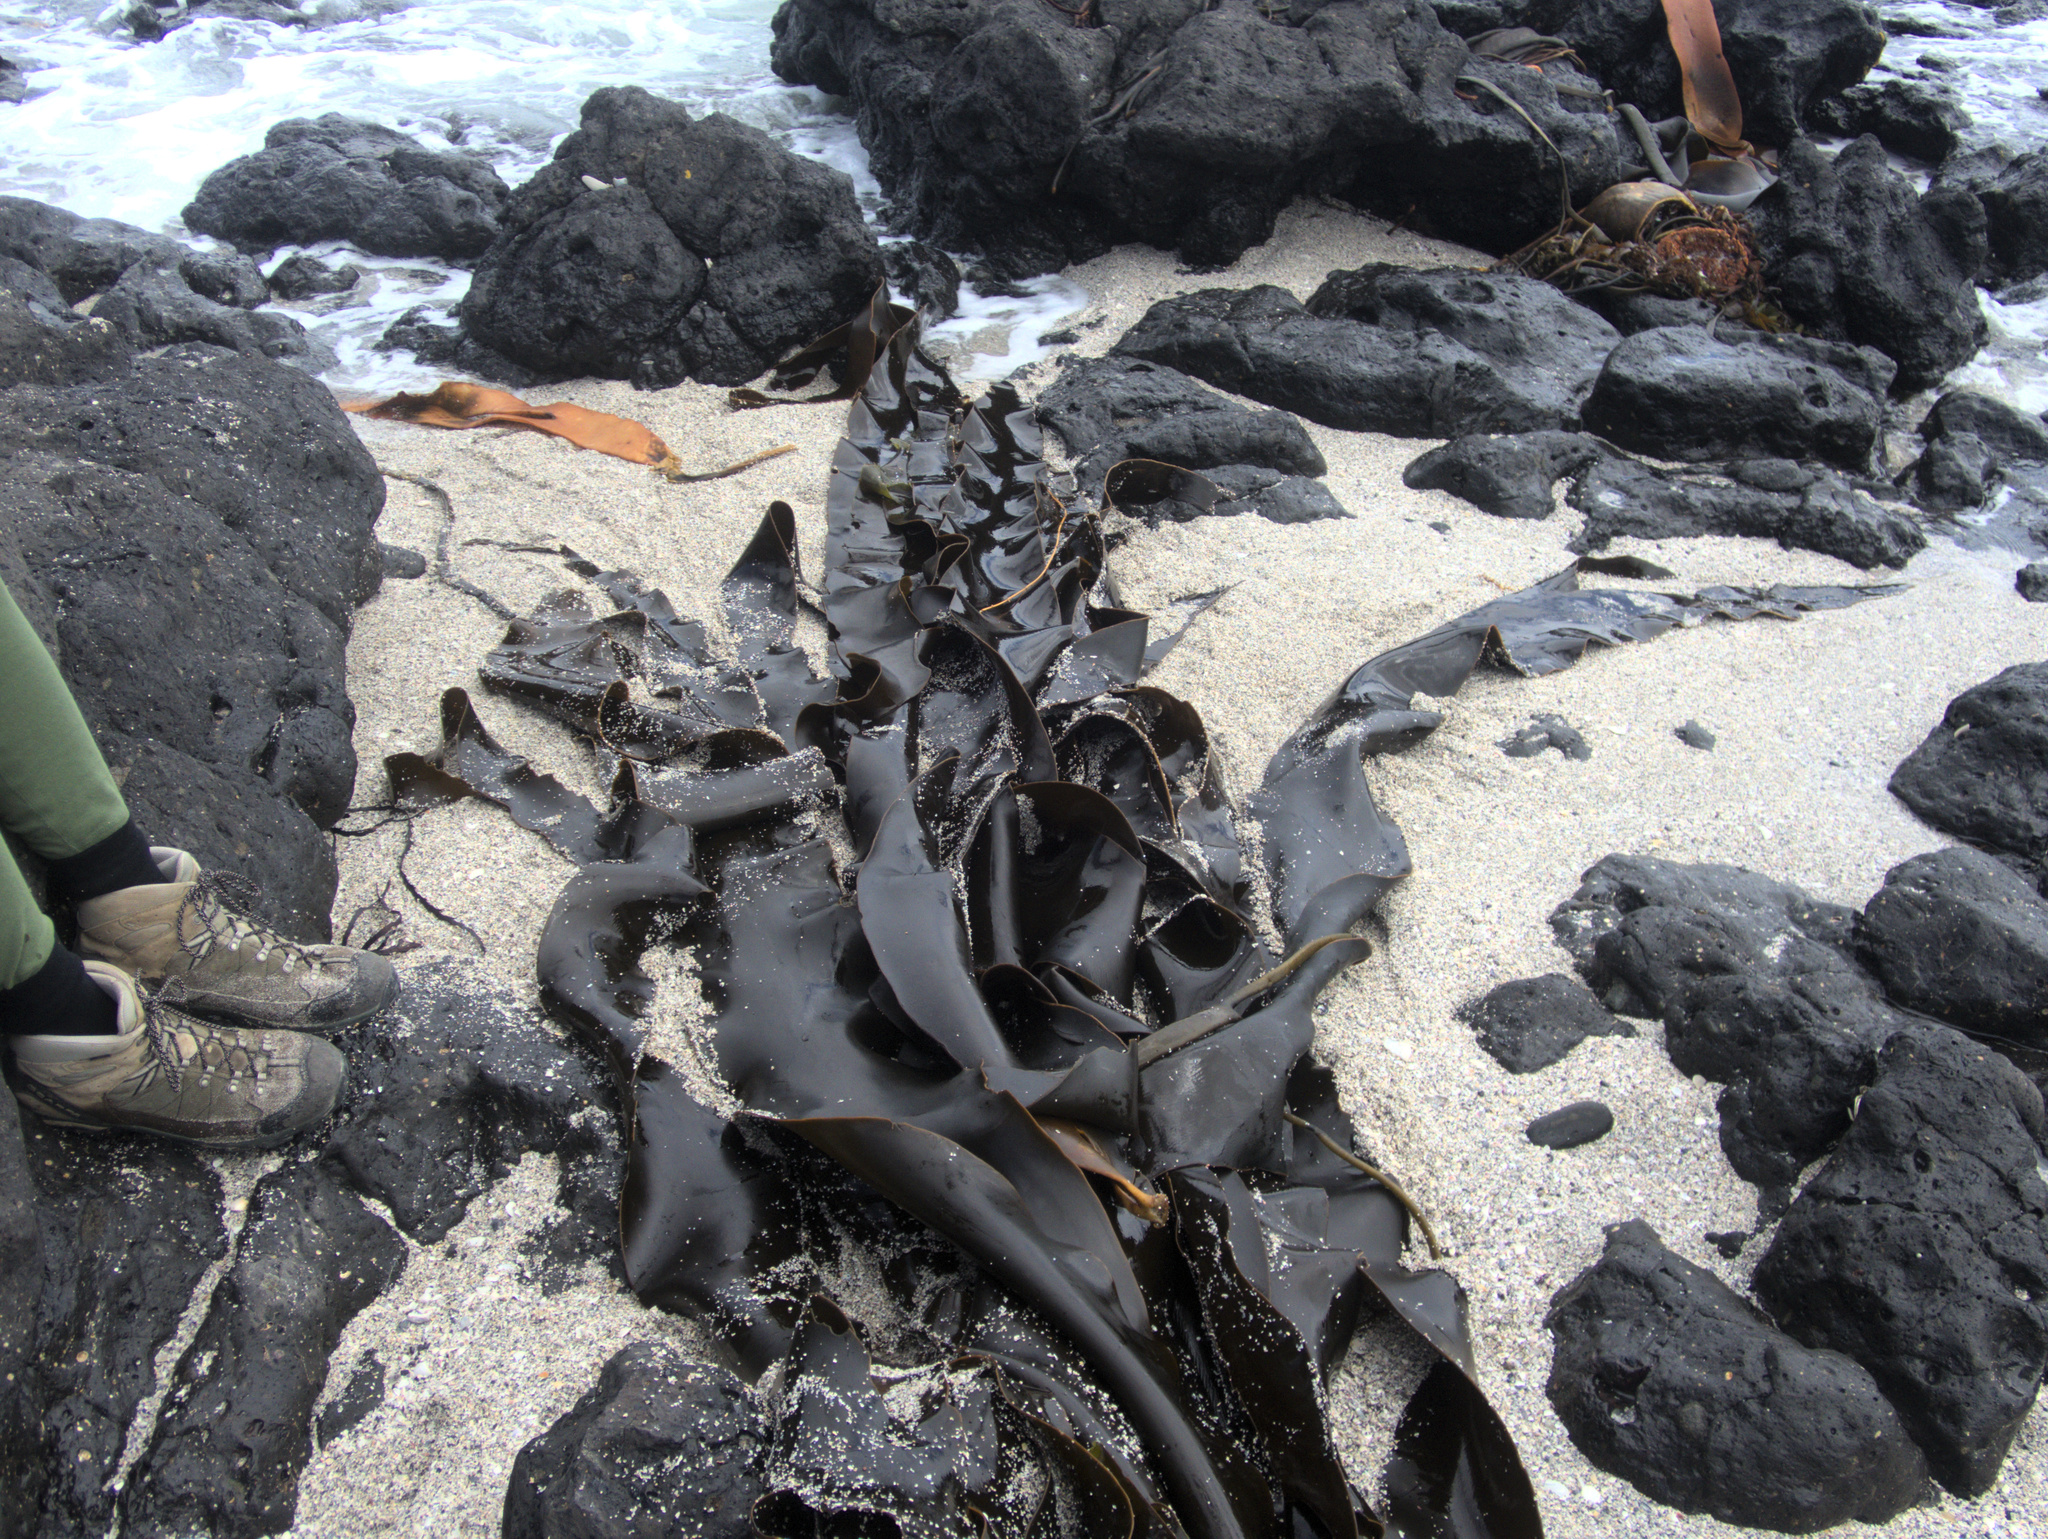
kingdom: Chromista
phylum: Ochrophyta
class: Phaeophyceae
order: Fucales
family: Durvillaeaceae
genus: Durvillaea
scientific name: Durvillaea chathamensis
